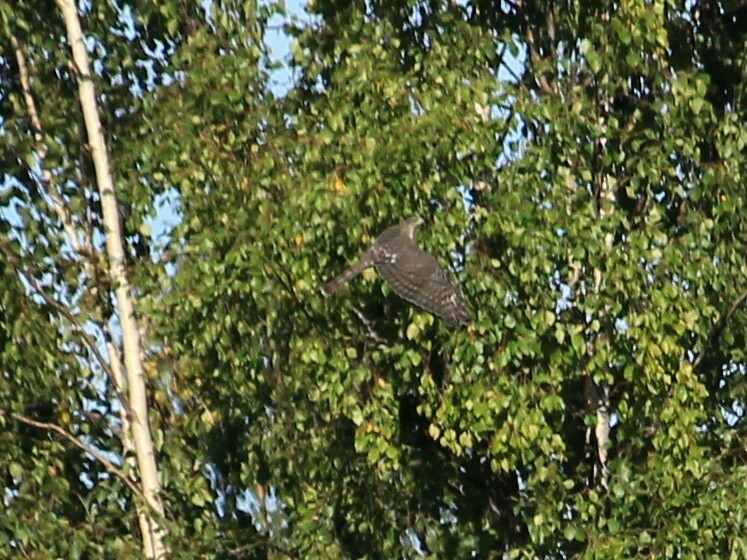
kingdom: Animalia
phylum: Chordata
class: Aves
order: Accipitriformes
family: Accipitridae
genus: Accipiter
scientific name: Accipiter nisus
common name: Eurasian sparrowhawk
